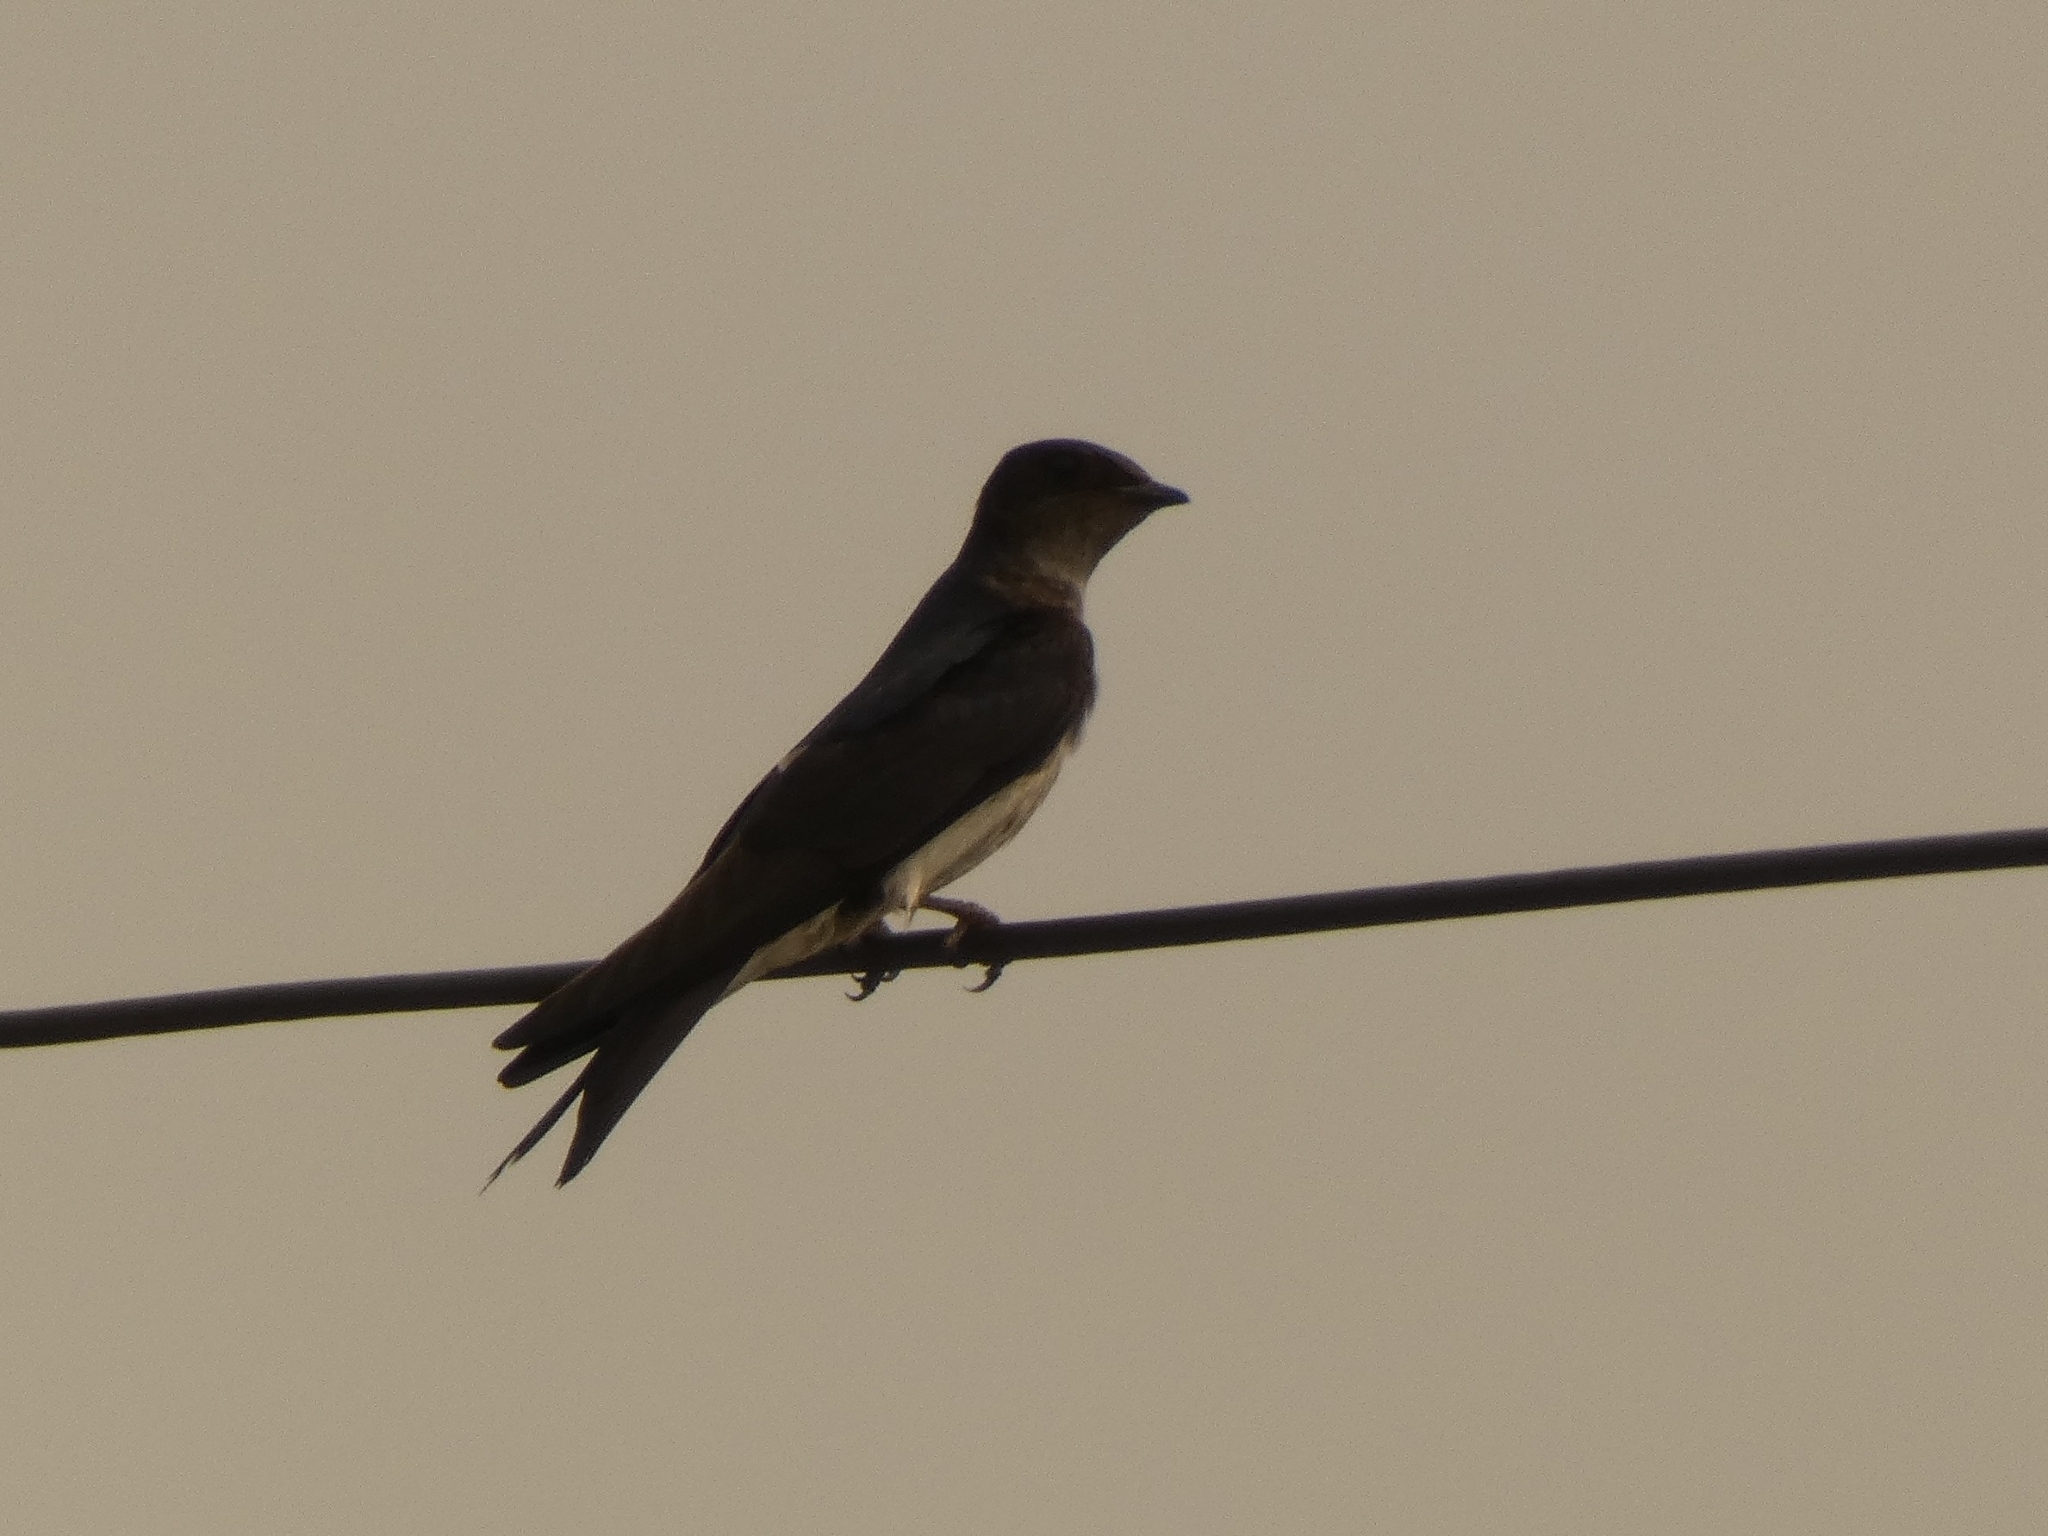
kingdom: Animalia
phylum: Chordata
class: Aves
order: Passeriformes
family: Hirundinidae
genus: Progne
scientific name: Progne chalybea
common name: Grey-breasted martin
